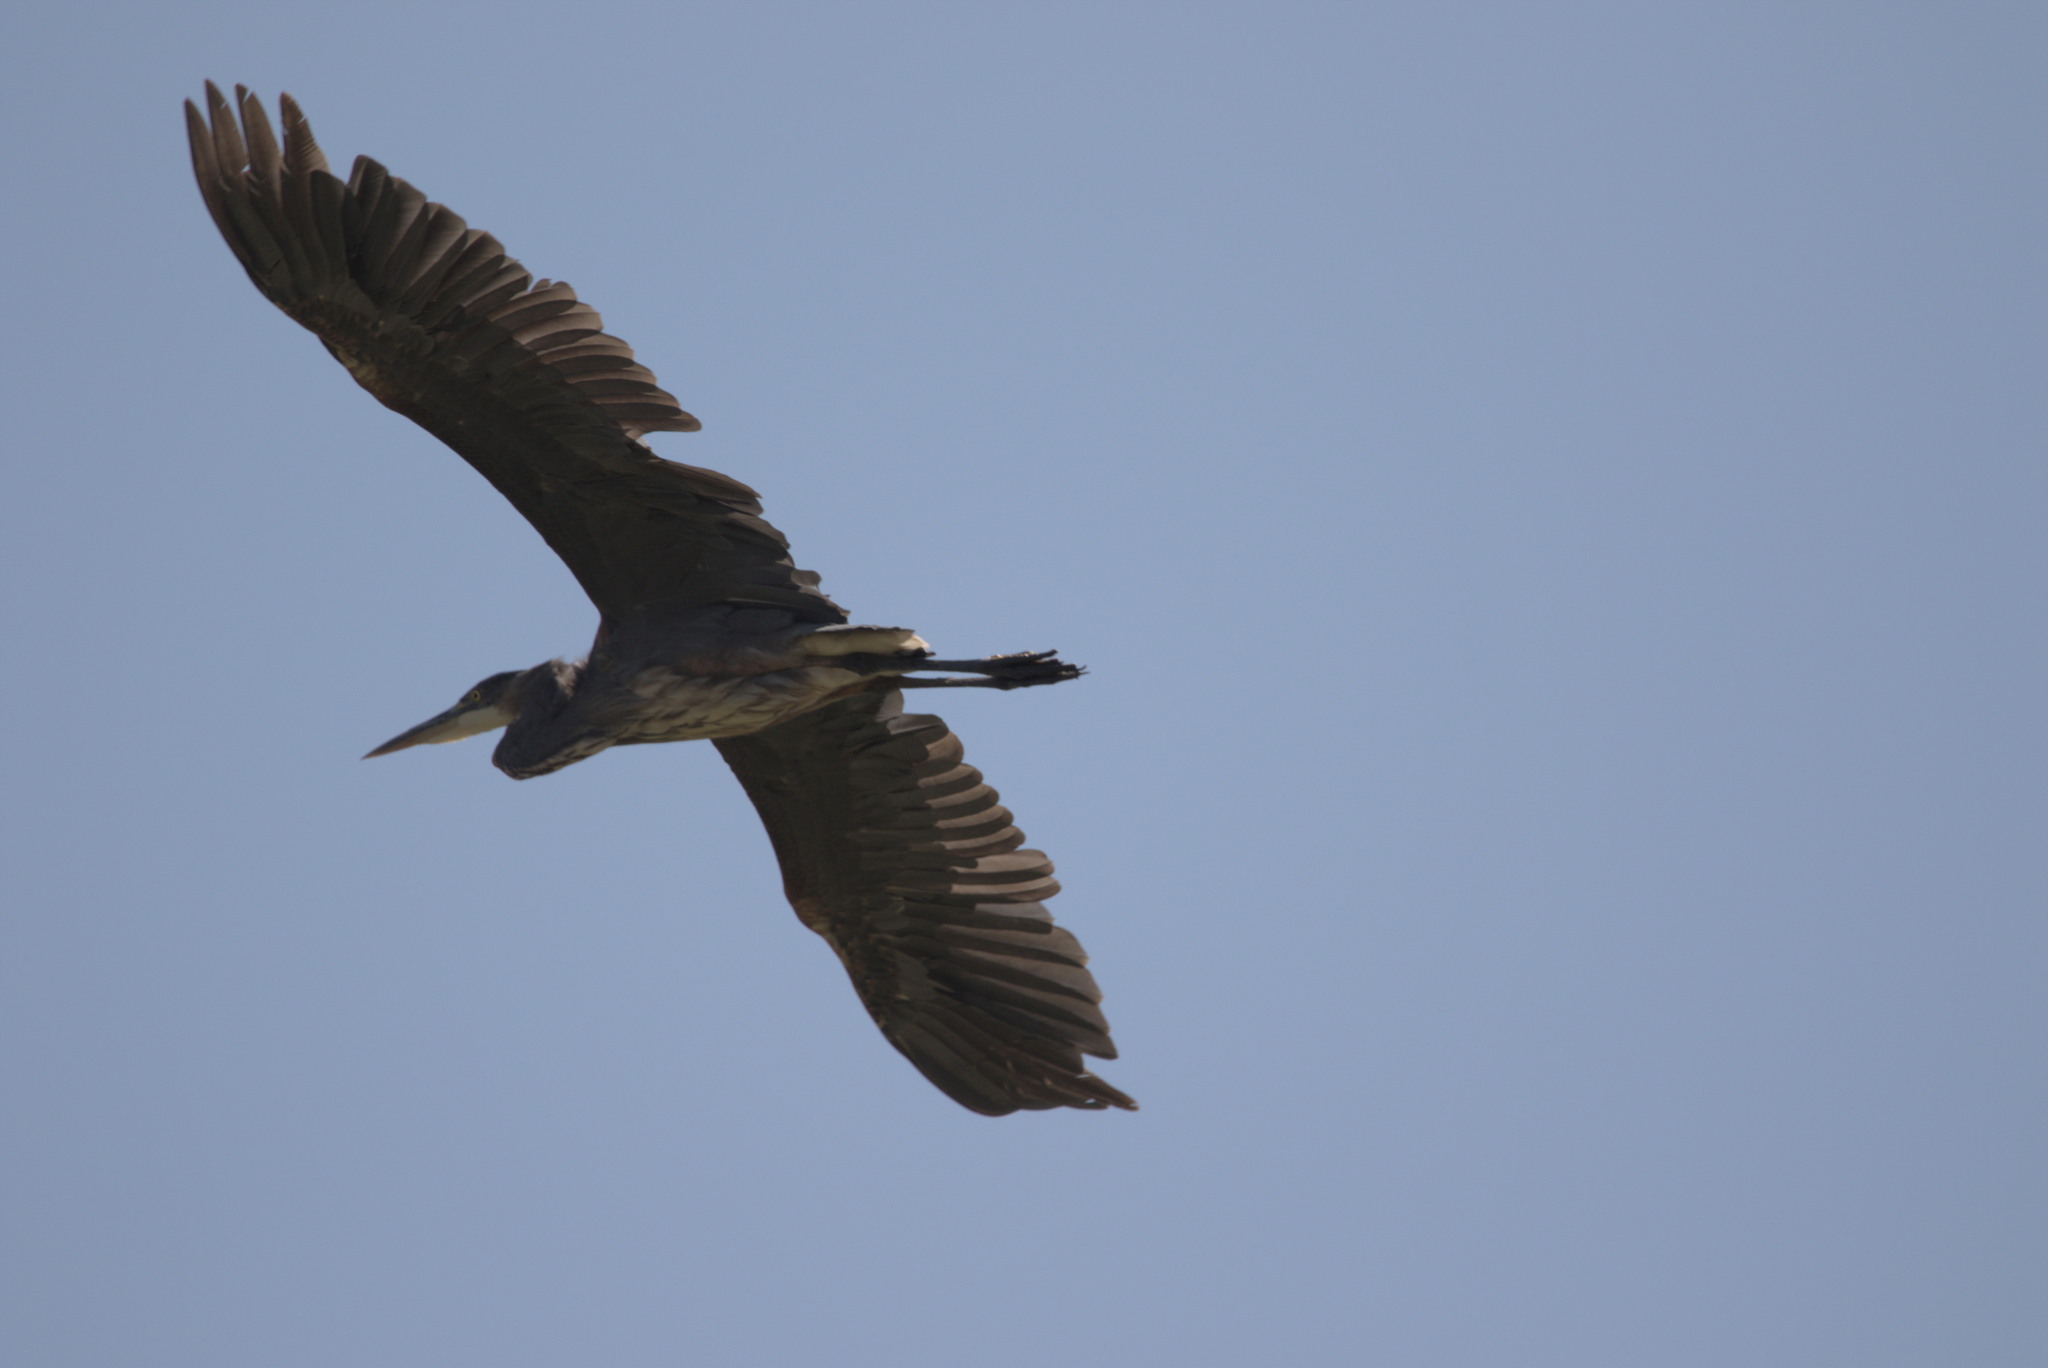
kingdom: Animalia
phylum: Chordata
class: Aves
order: Pelecaniformes
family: Ardeidae
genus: Ardea
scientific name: Ardea herodias
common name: Great blue heron
